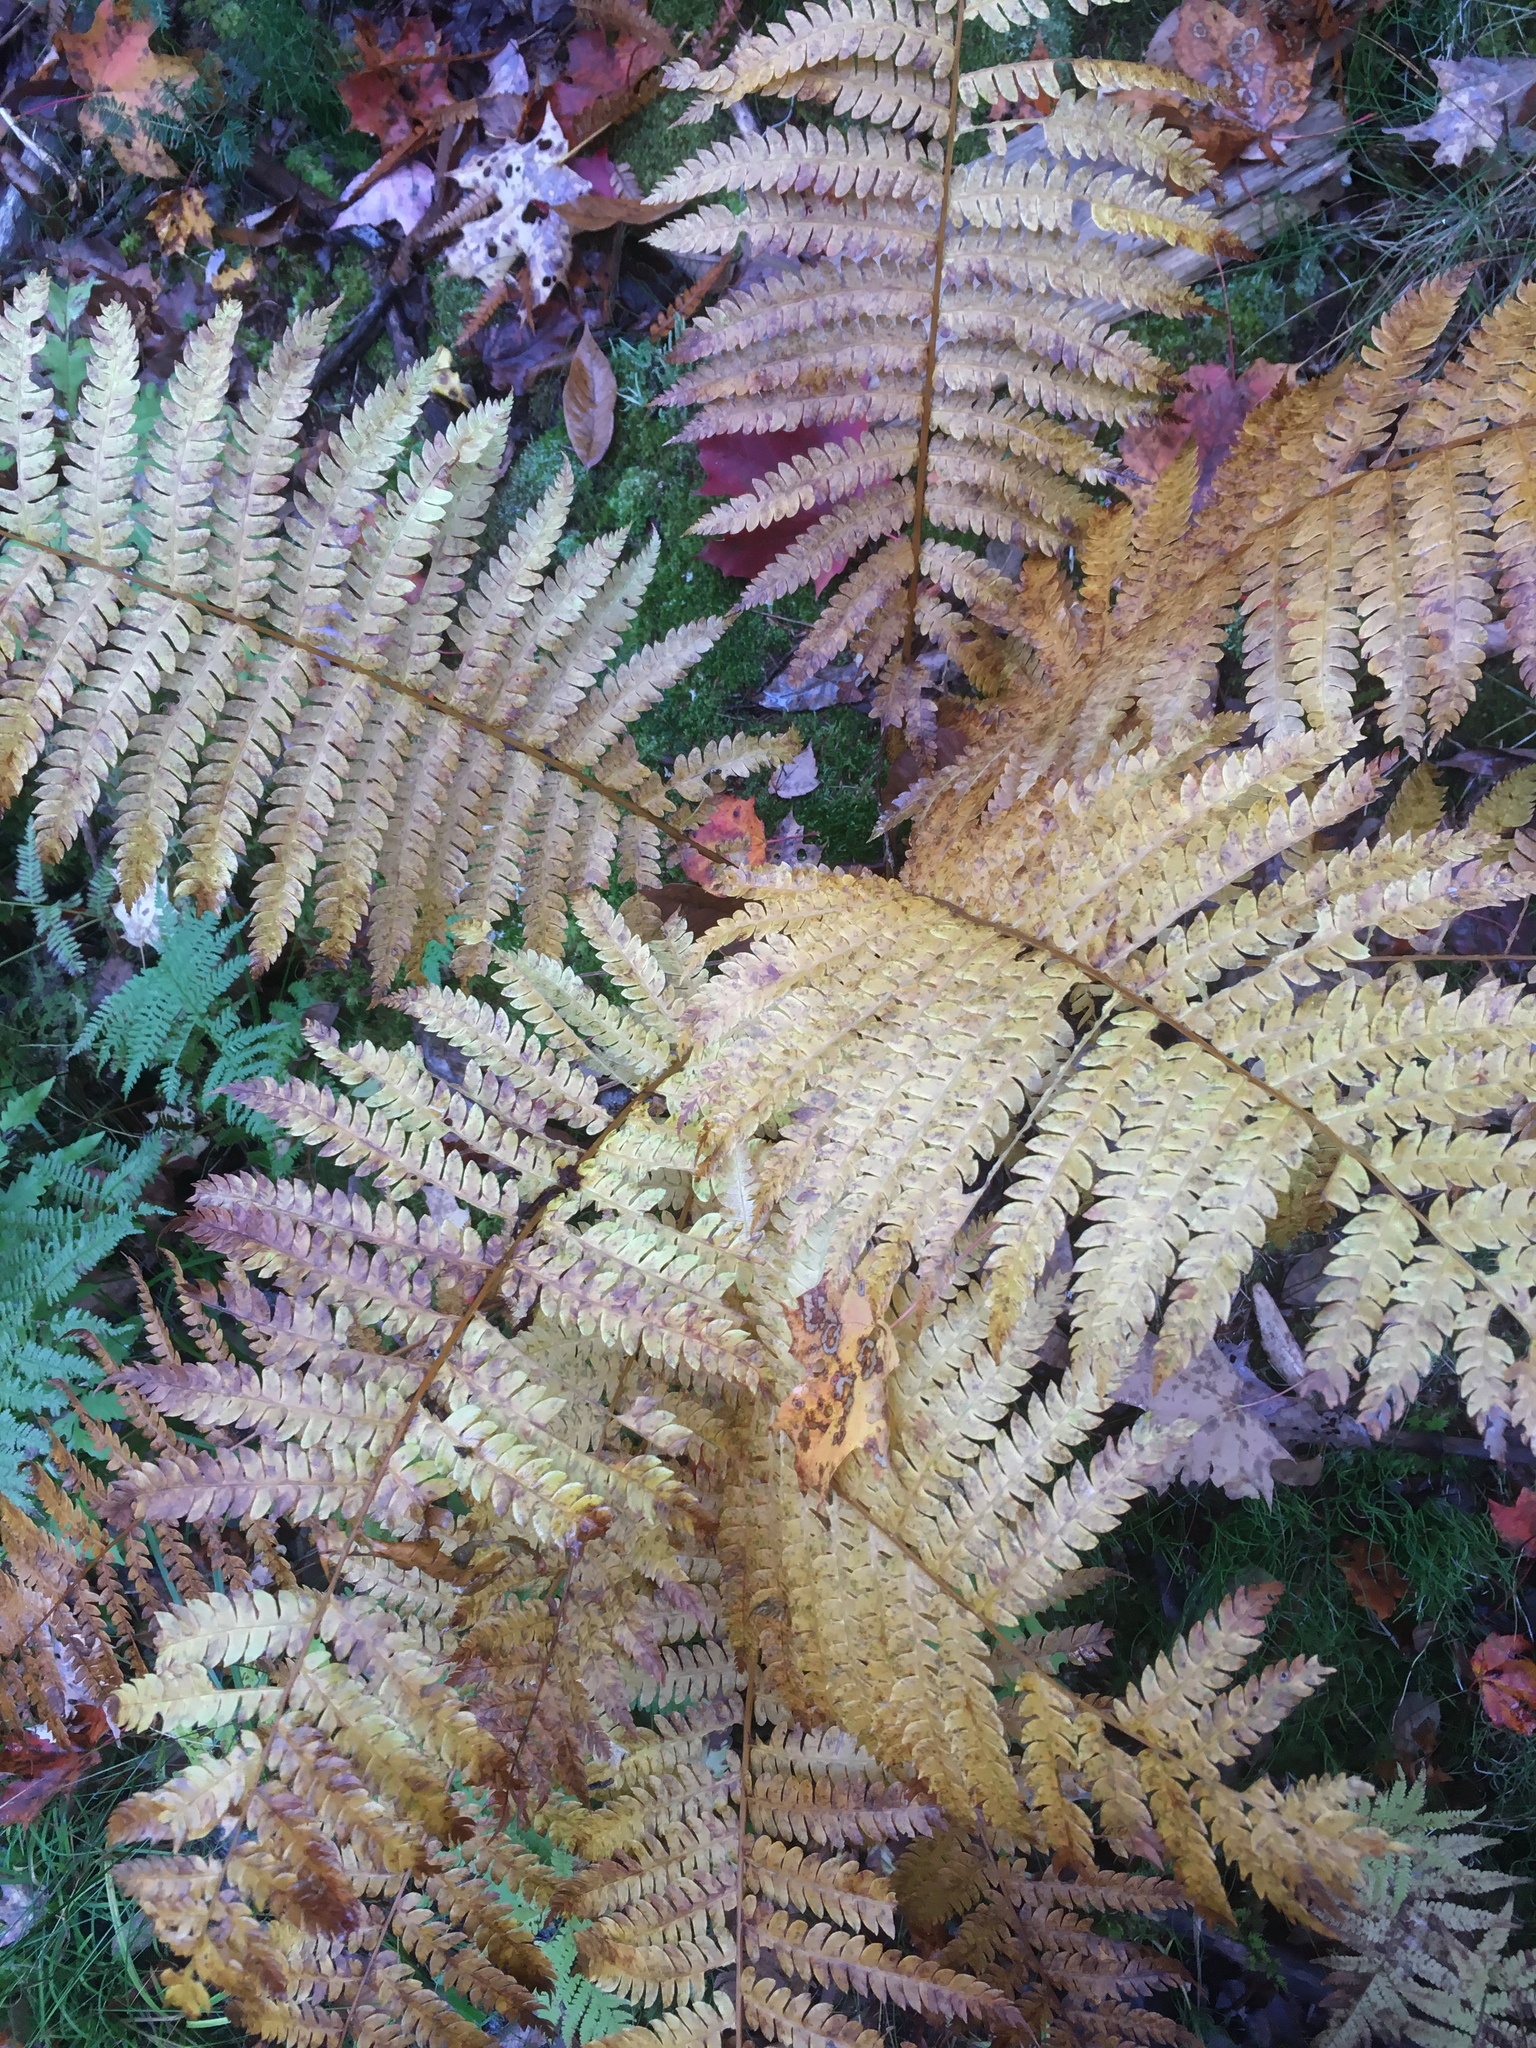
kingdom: Plantae
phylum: Tracheophyta
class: Polypodiopsida
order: Osmundales
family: Osmundaceae
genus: Osmundastrum
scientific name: Osmundastrum cinnamomeum
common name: Cinnamon fern
